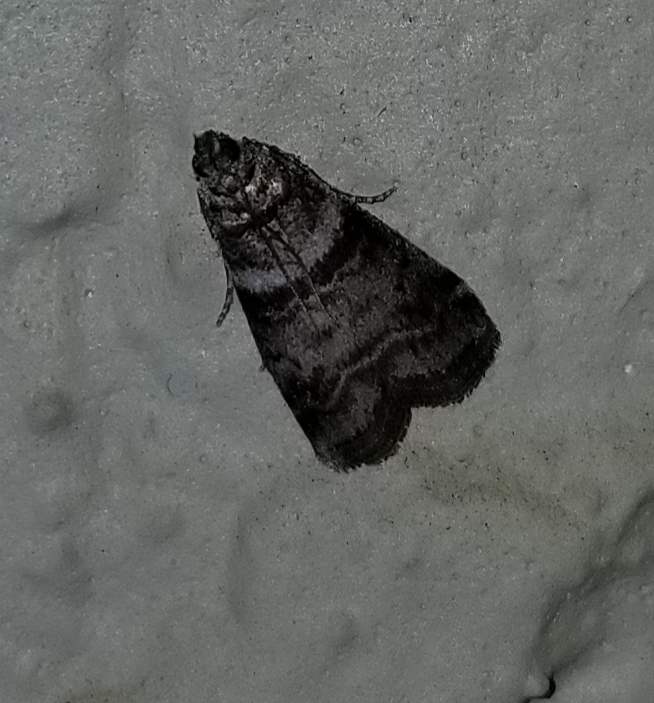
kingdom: Animalia
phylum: Arthropoda
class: Insecta
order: Lepidoptera
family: Pyralidae
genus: Sciota
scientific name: Sciota uvinella
